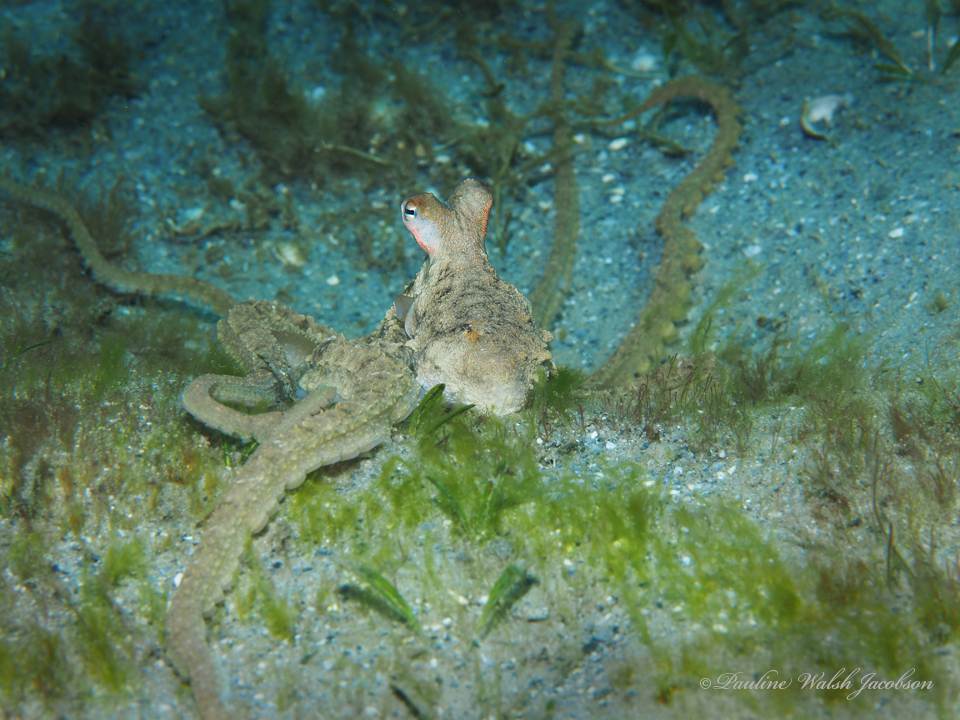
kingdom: Animalia
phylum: Mollusca
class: Cephalopoda
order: Octopoda
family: Octopodidae
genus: Macrotritopus
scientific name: Macrotritopus defilippi
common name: Lilliput longarm octopus
